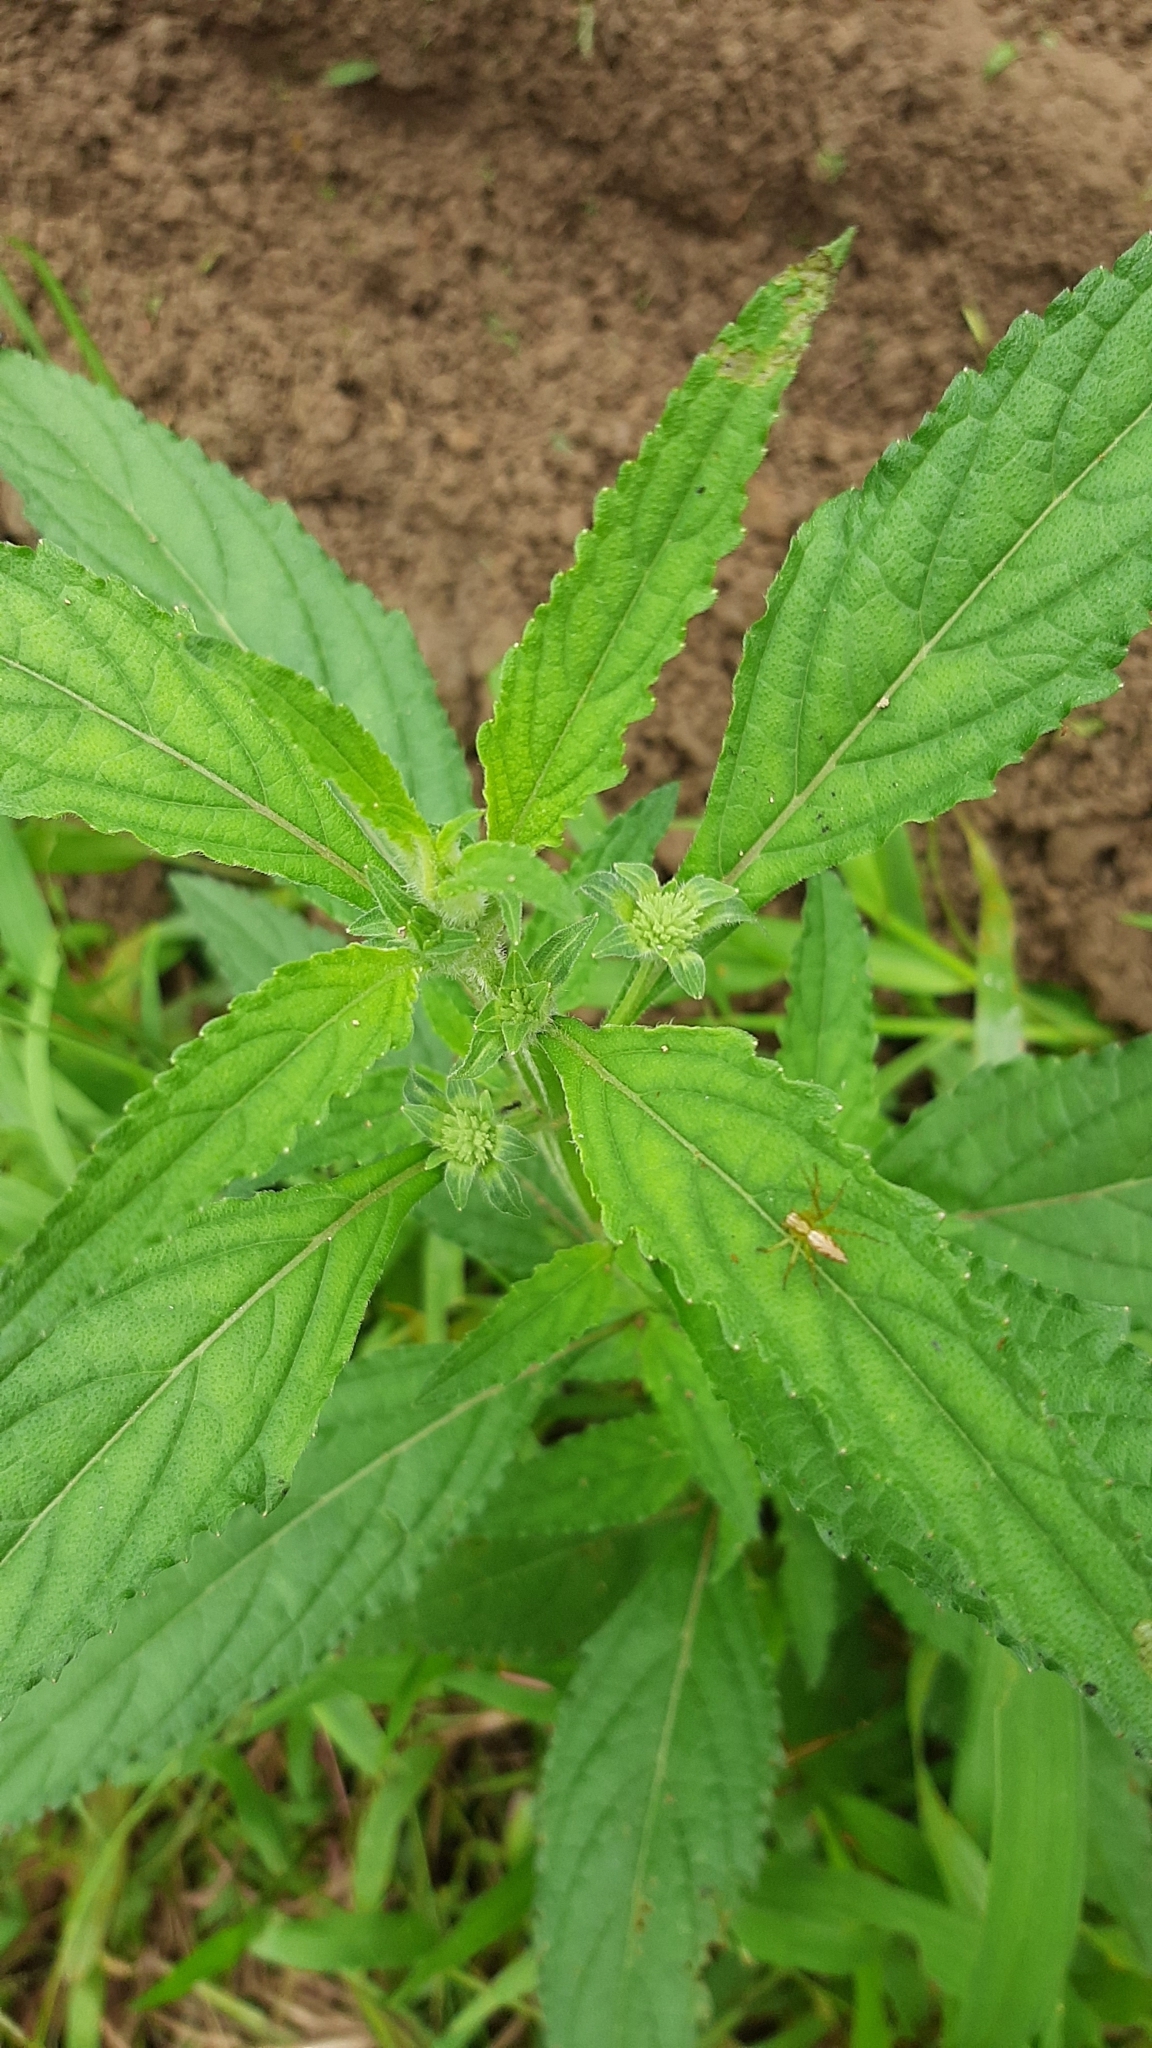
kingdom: Plantae
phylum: Tracheophyta
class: Magnoliopsida
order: Lamiales
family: Lamiaceae
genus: Hyptis
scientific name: Hyptis capitata
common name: False ironwort
